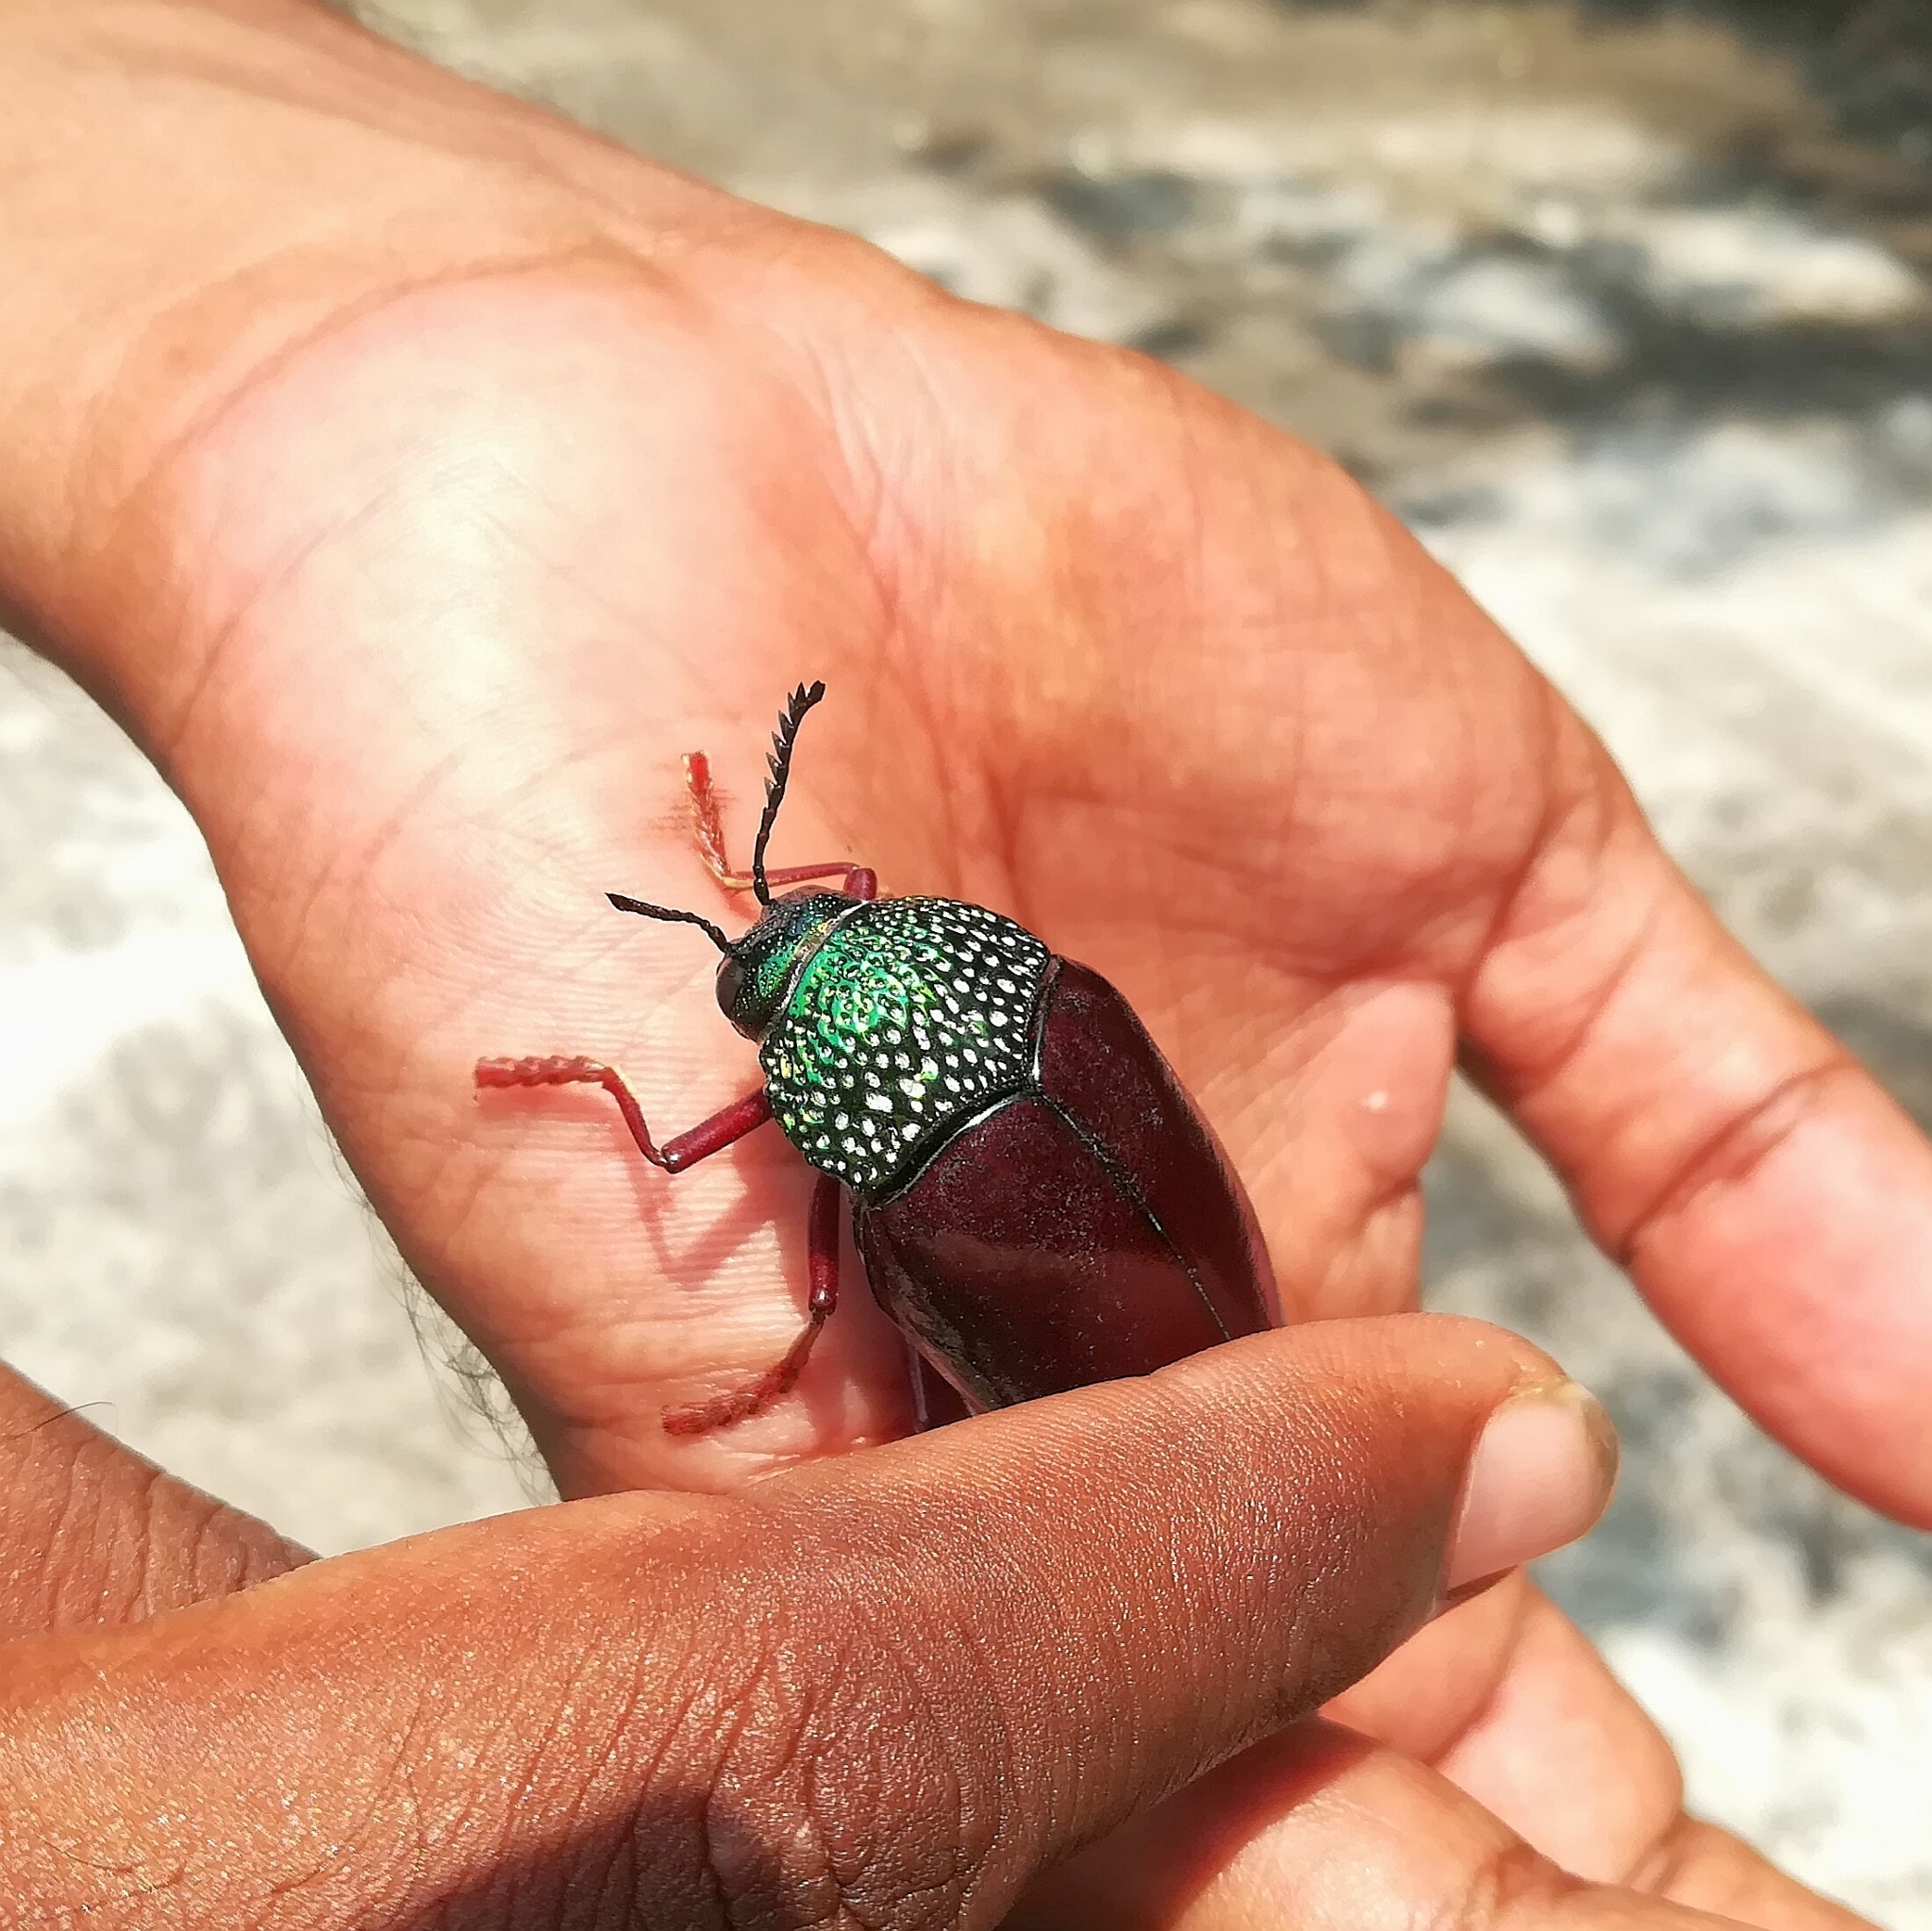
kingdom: Animalia
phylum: Arthropoda
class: Insecta
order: Coleoptera
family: Buprestidae
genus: Sternocera
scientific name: Sternocera chrysis
